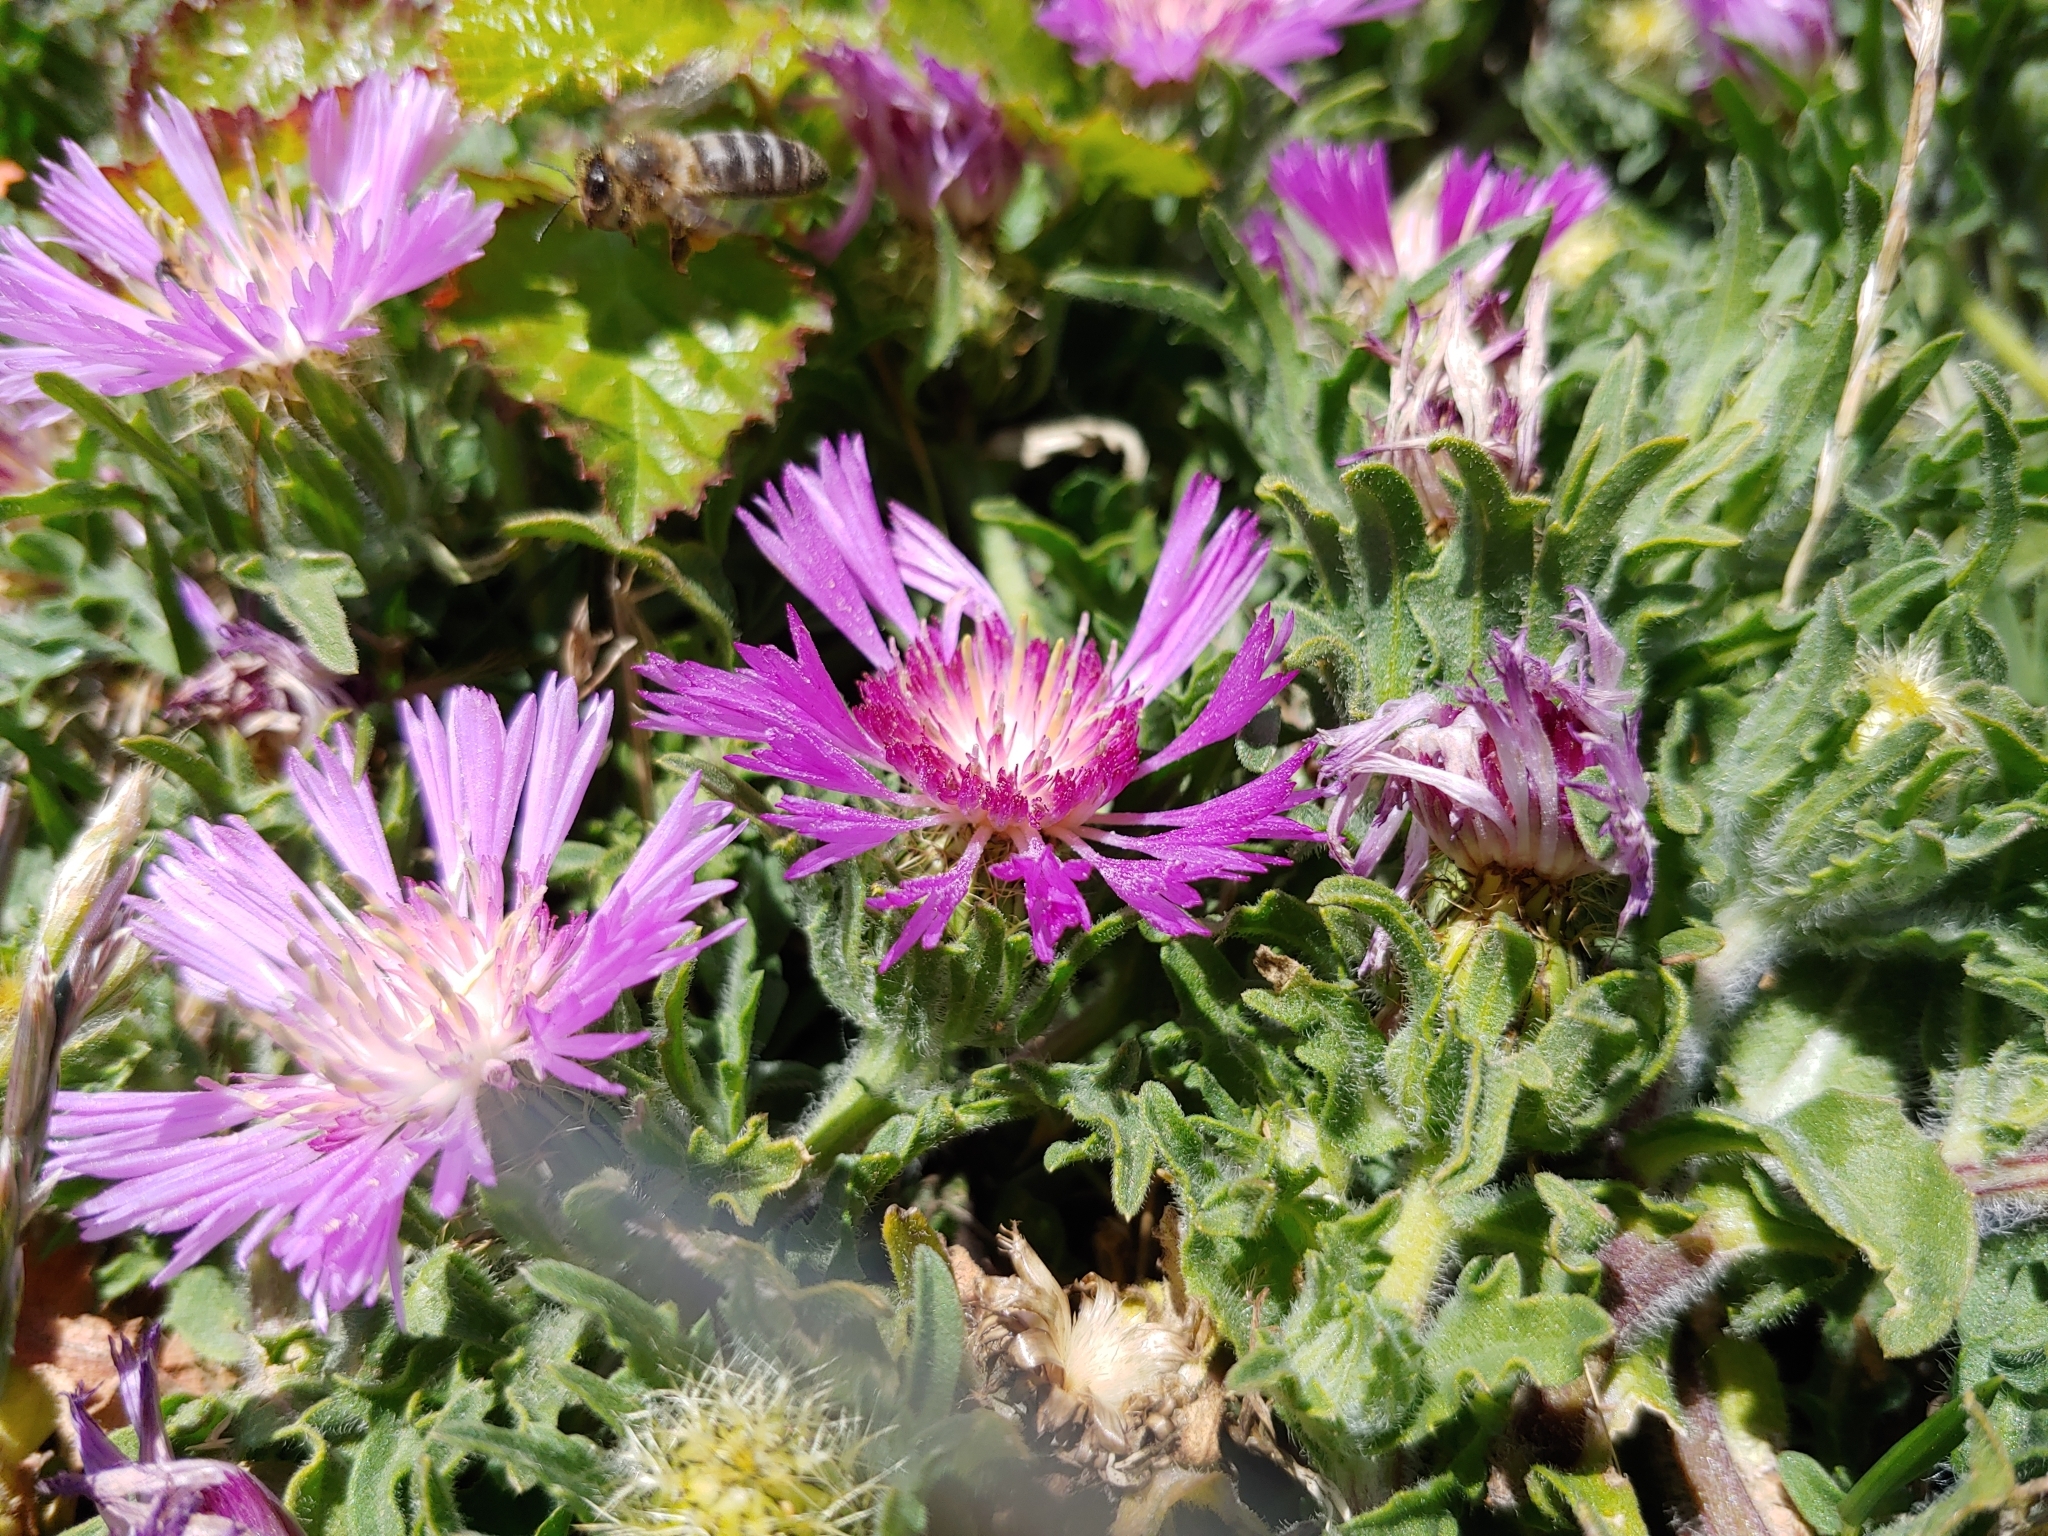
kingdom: Plantae
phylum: Tracheophyta
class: Magnoliopsida
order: Asterales
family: Asteraceae
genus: Centaurea
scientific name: Centaurea pullata
